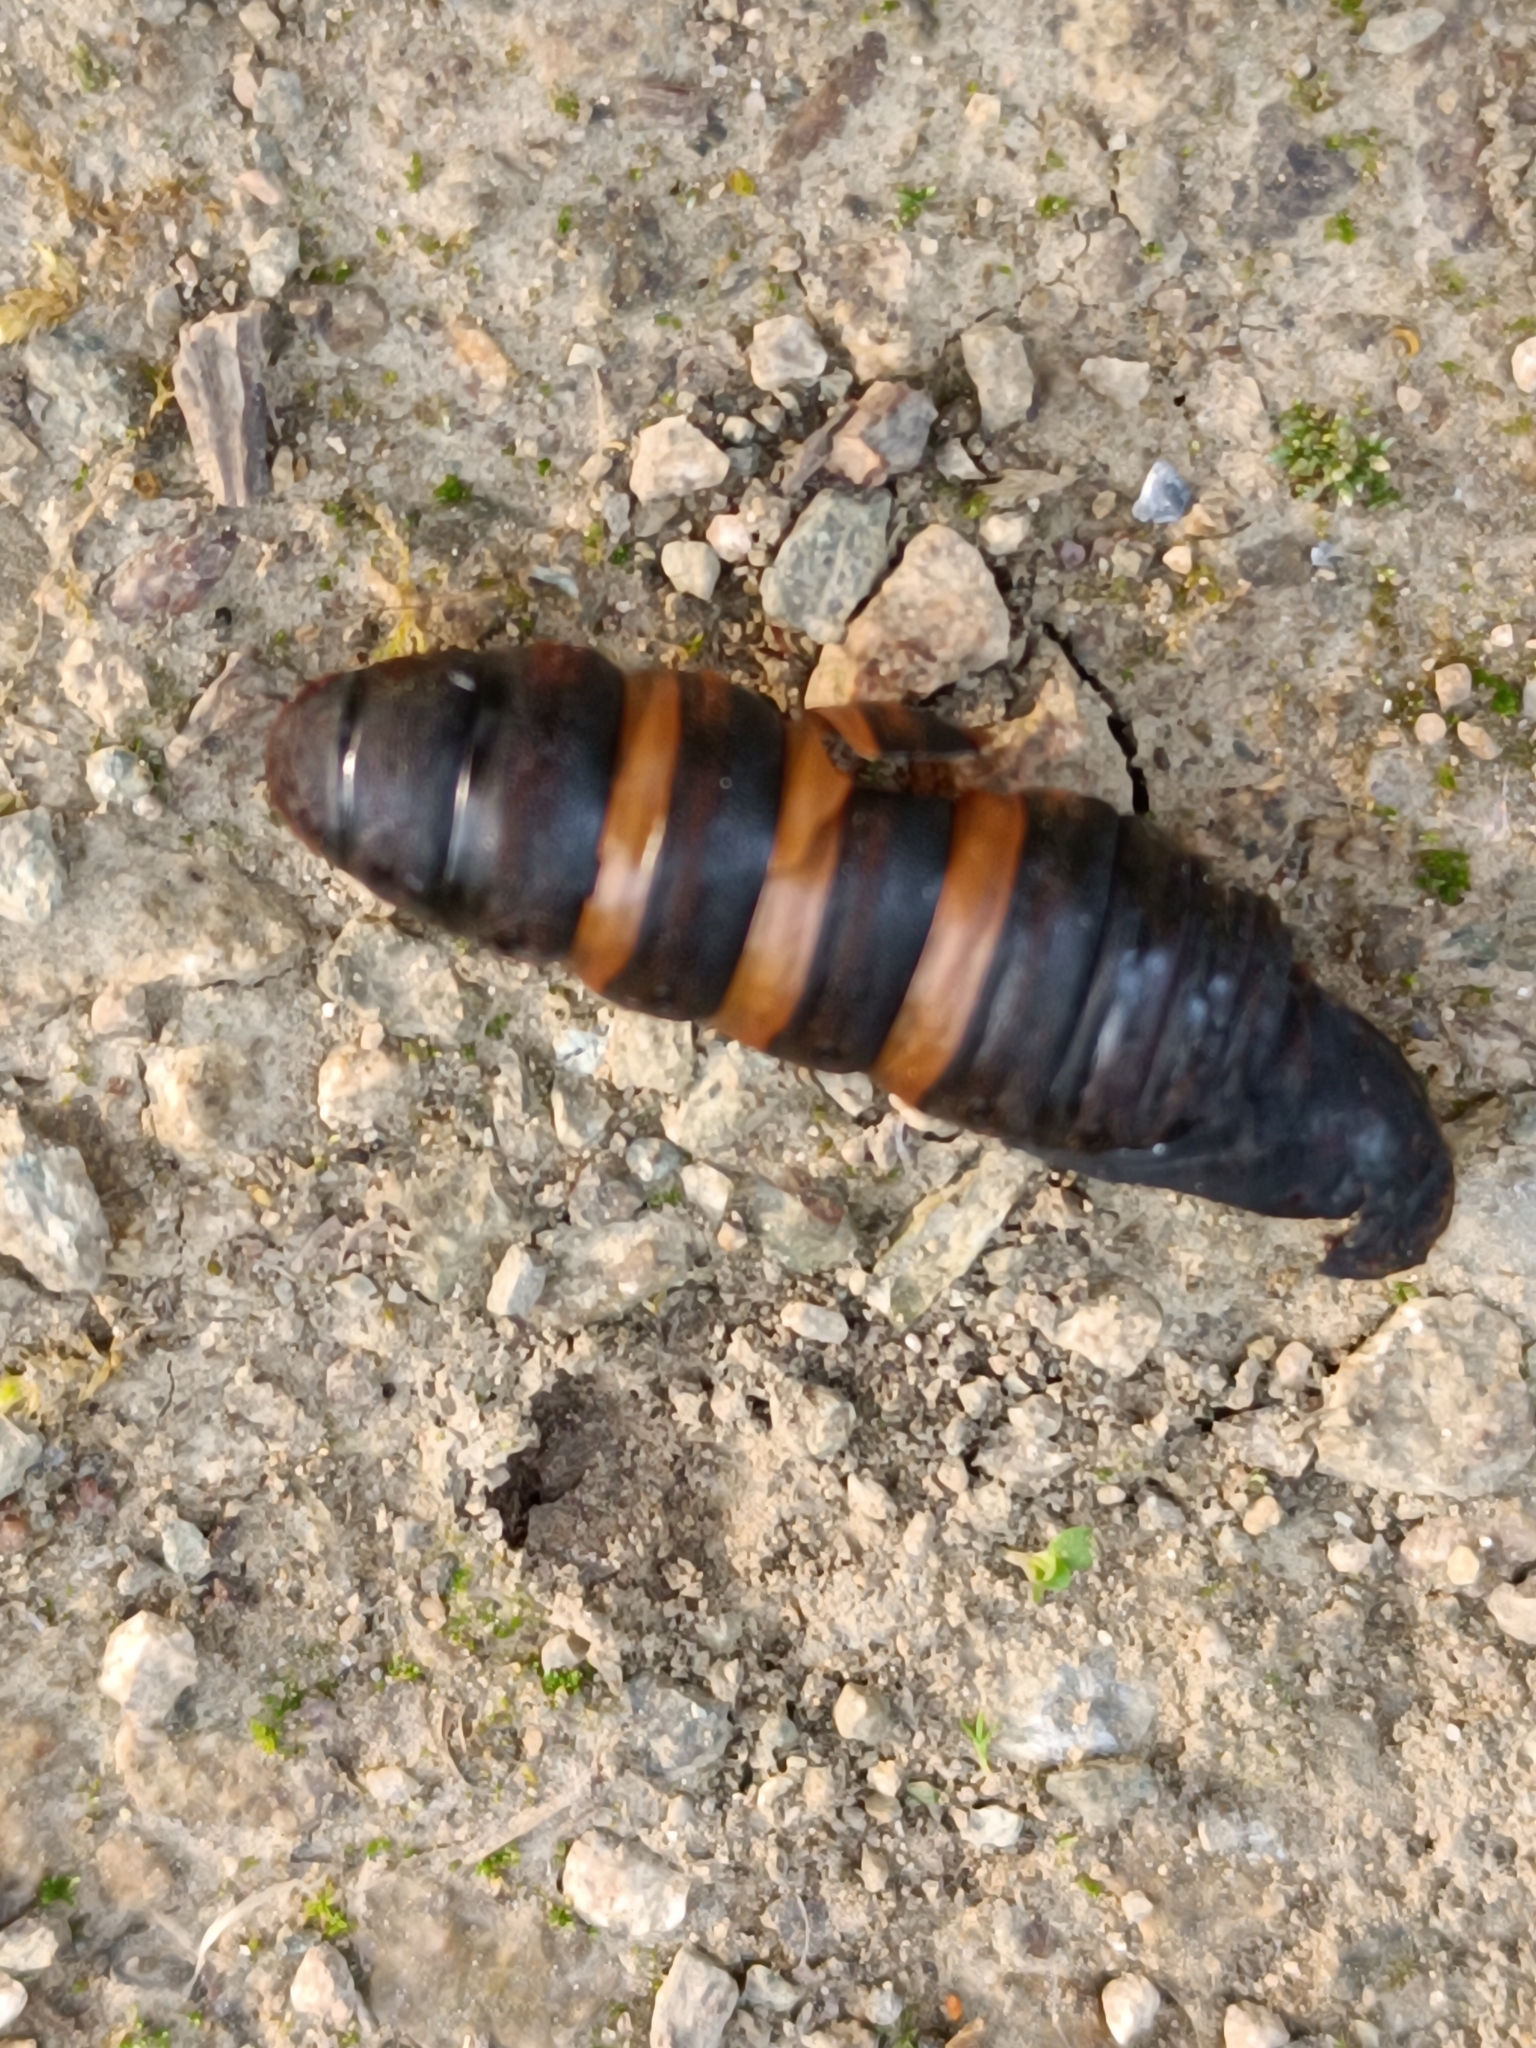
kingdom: Animalia
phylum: Arthropoda
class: Insecta
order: Lepidoptera
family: Erebidae
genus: Lymantria
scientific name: Lymantria dispar
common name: Gypsy moth
